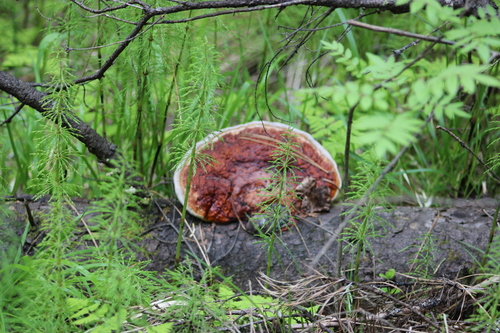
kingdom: Fungi
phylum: Basidiomycota
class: Agaricomycetes
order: Polyporales
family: Fomitopsidaceae
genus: Fomitopsis
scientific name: Fomitopsis pinicola
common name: Red-belted bracket
